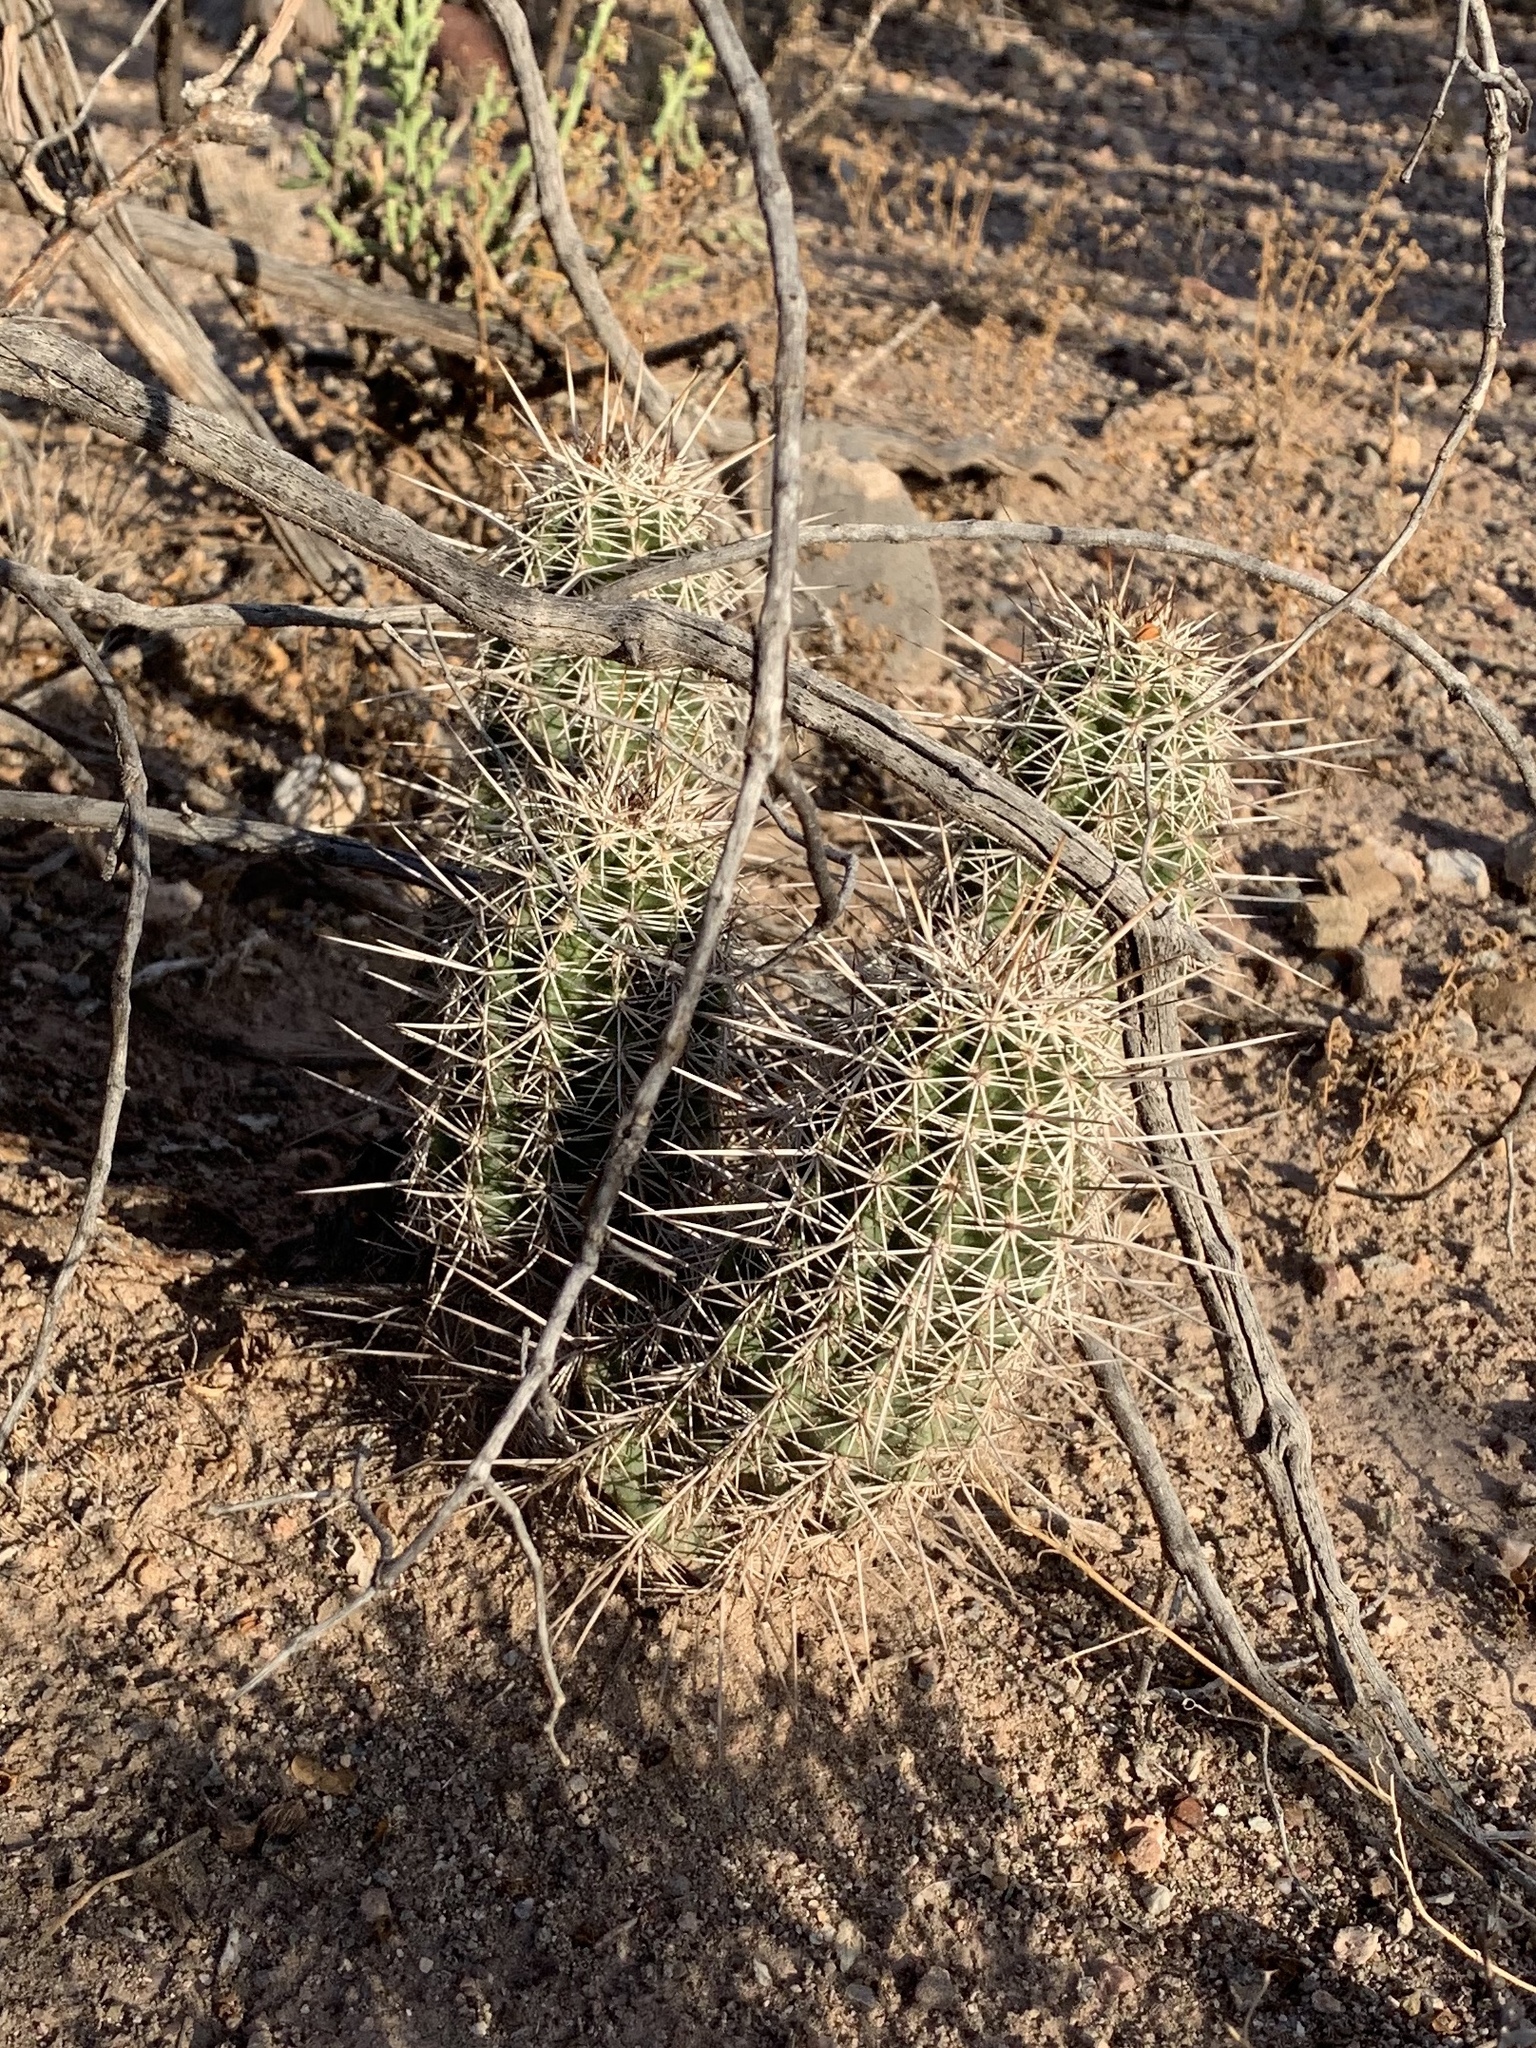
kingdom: Plantae
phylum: Tracheophyta
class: Magnoliopsida
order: Caryophyllales
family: Cactaceae
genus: Echinocereus
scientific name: Echinocereus fasciculatus
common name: Bundle hedgehog
